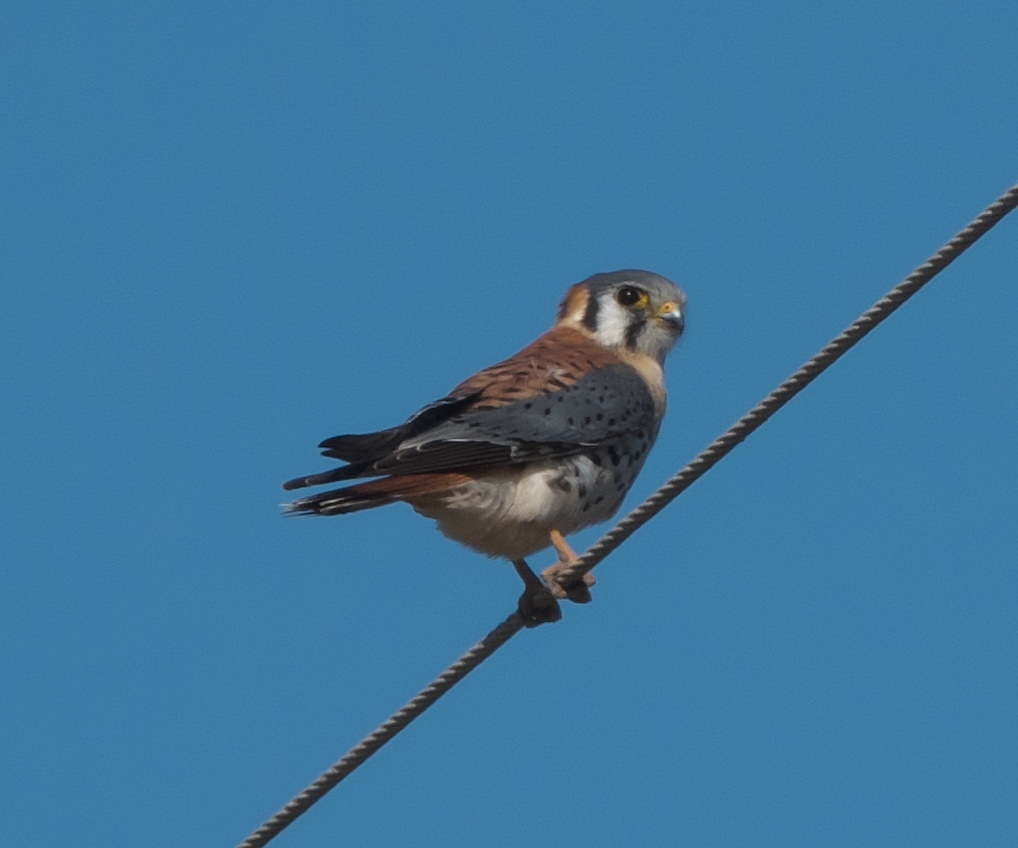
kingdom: Animalia
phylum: Chordata
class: Aves
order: Falconiformes
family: Falconidae
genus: Falco
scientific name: Falco sparverius
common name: American kestrel
